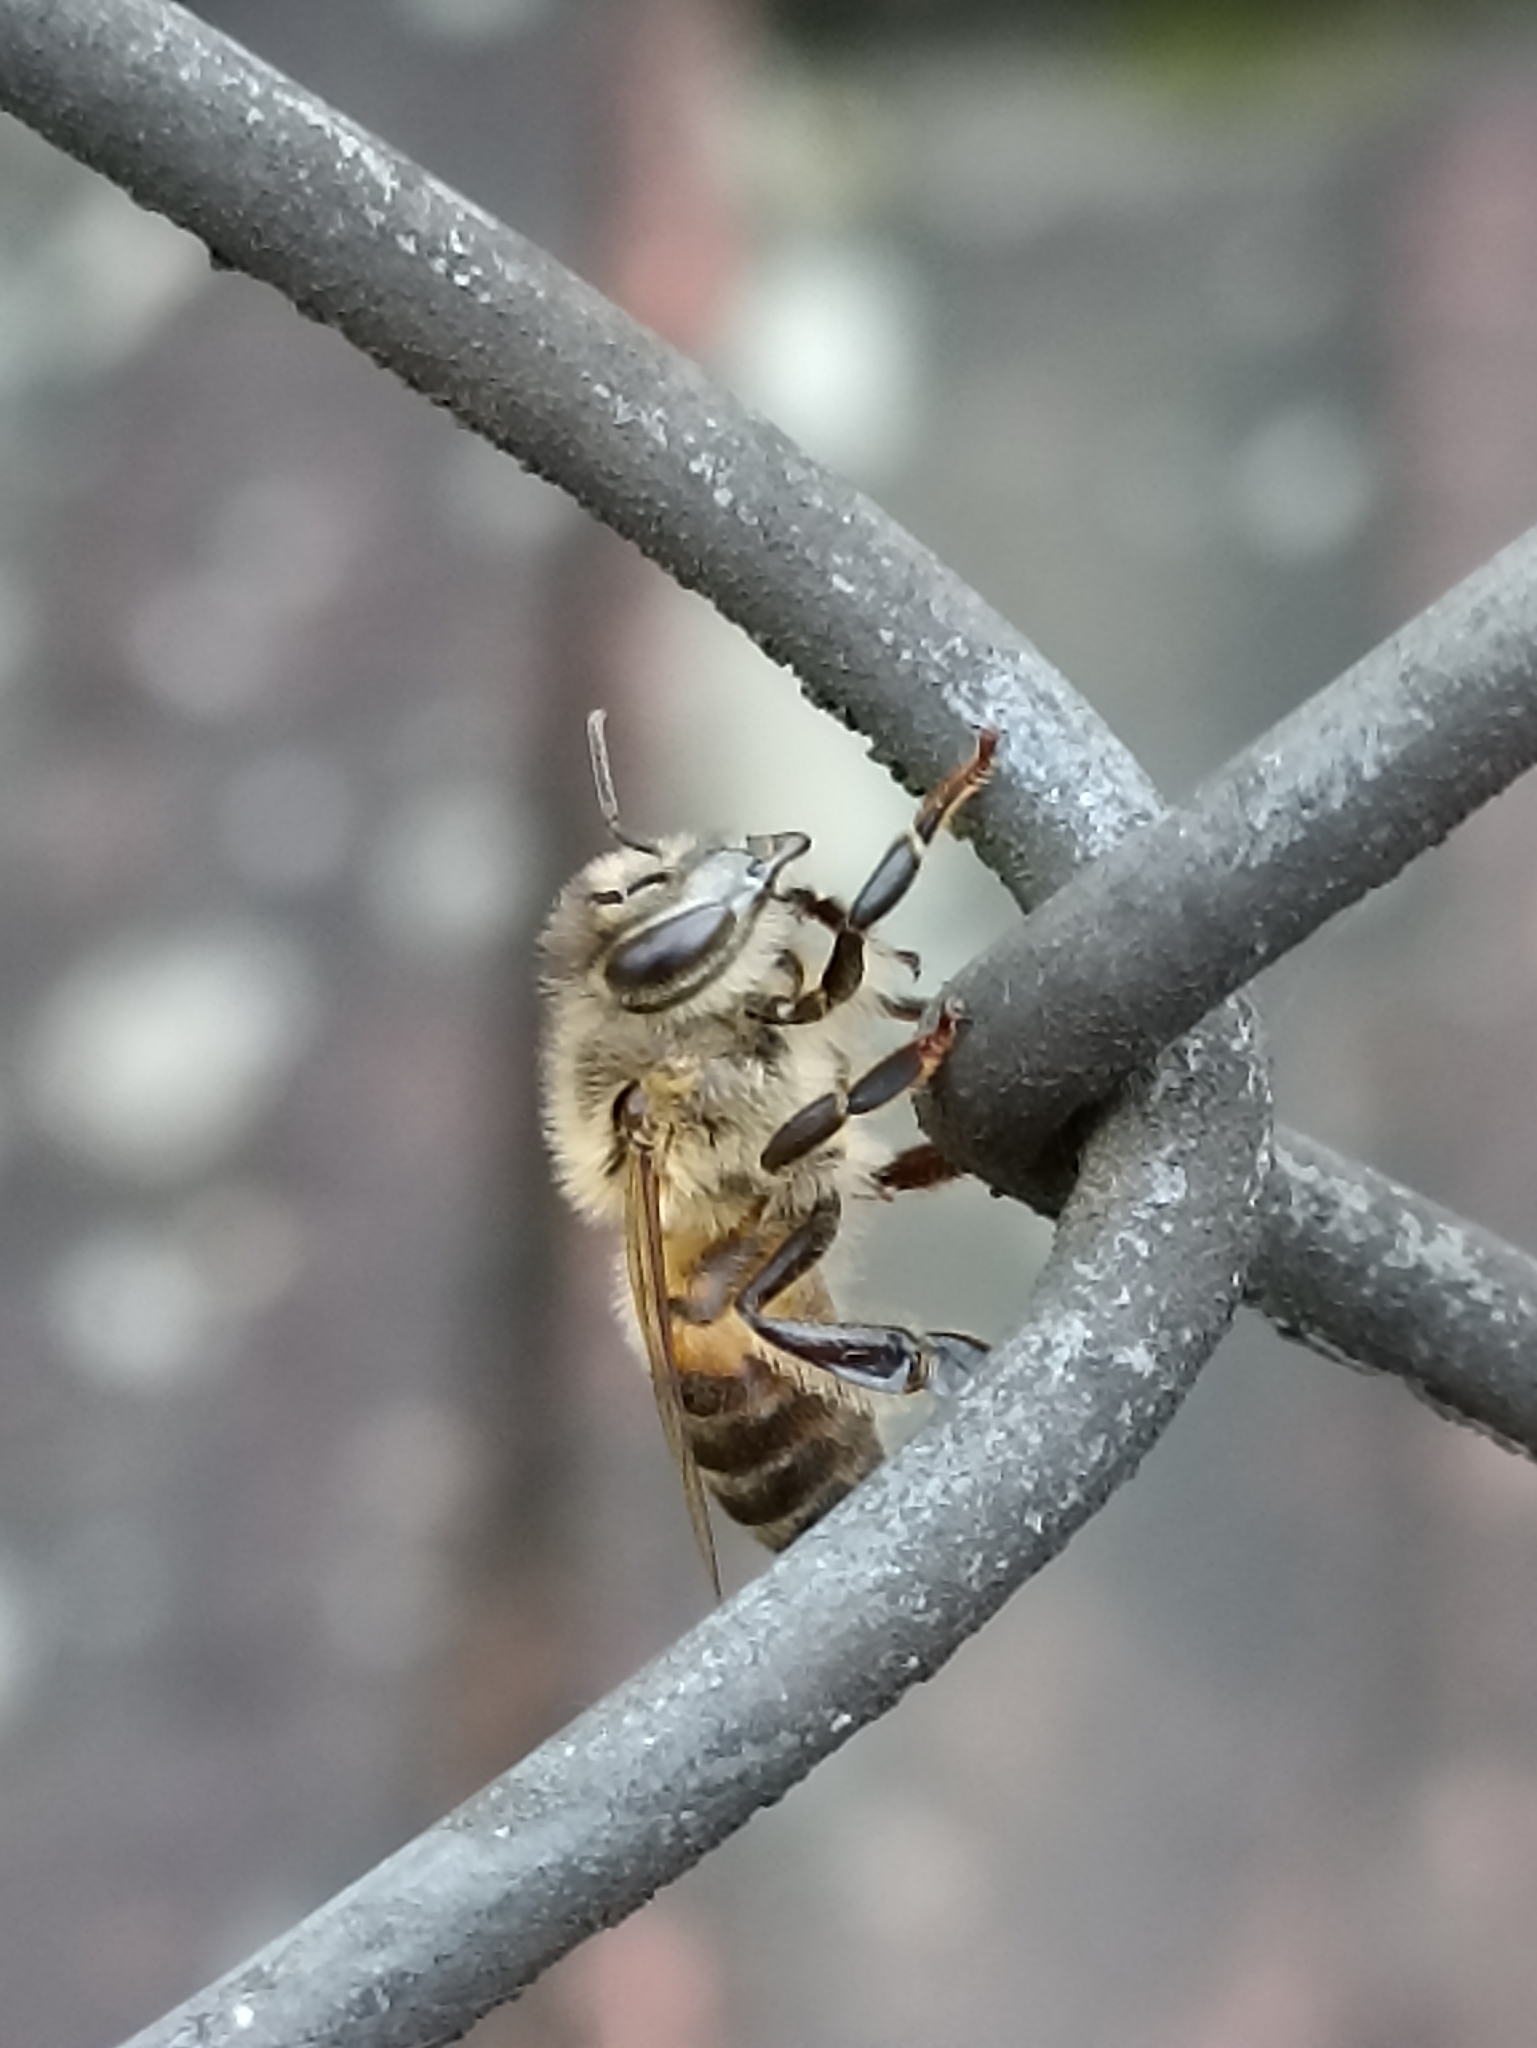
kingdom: Animalia
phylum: Arthropoda
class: Insecta
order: Hymenoptera
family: Apidae
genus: Apis
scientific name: Apis mellifera
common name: Honey bee
